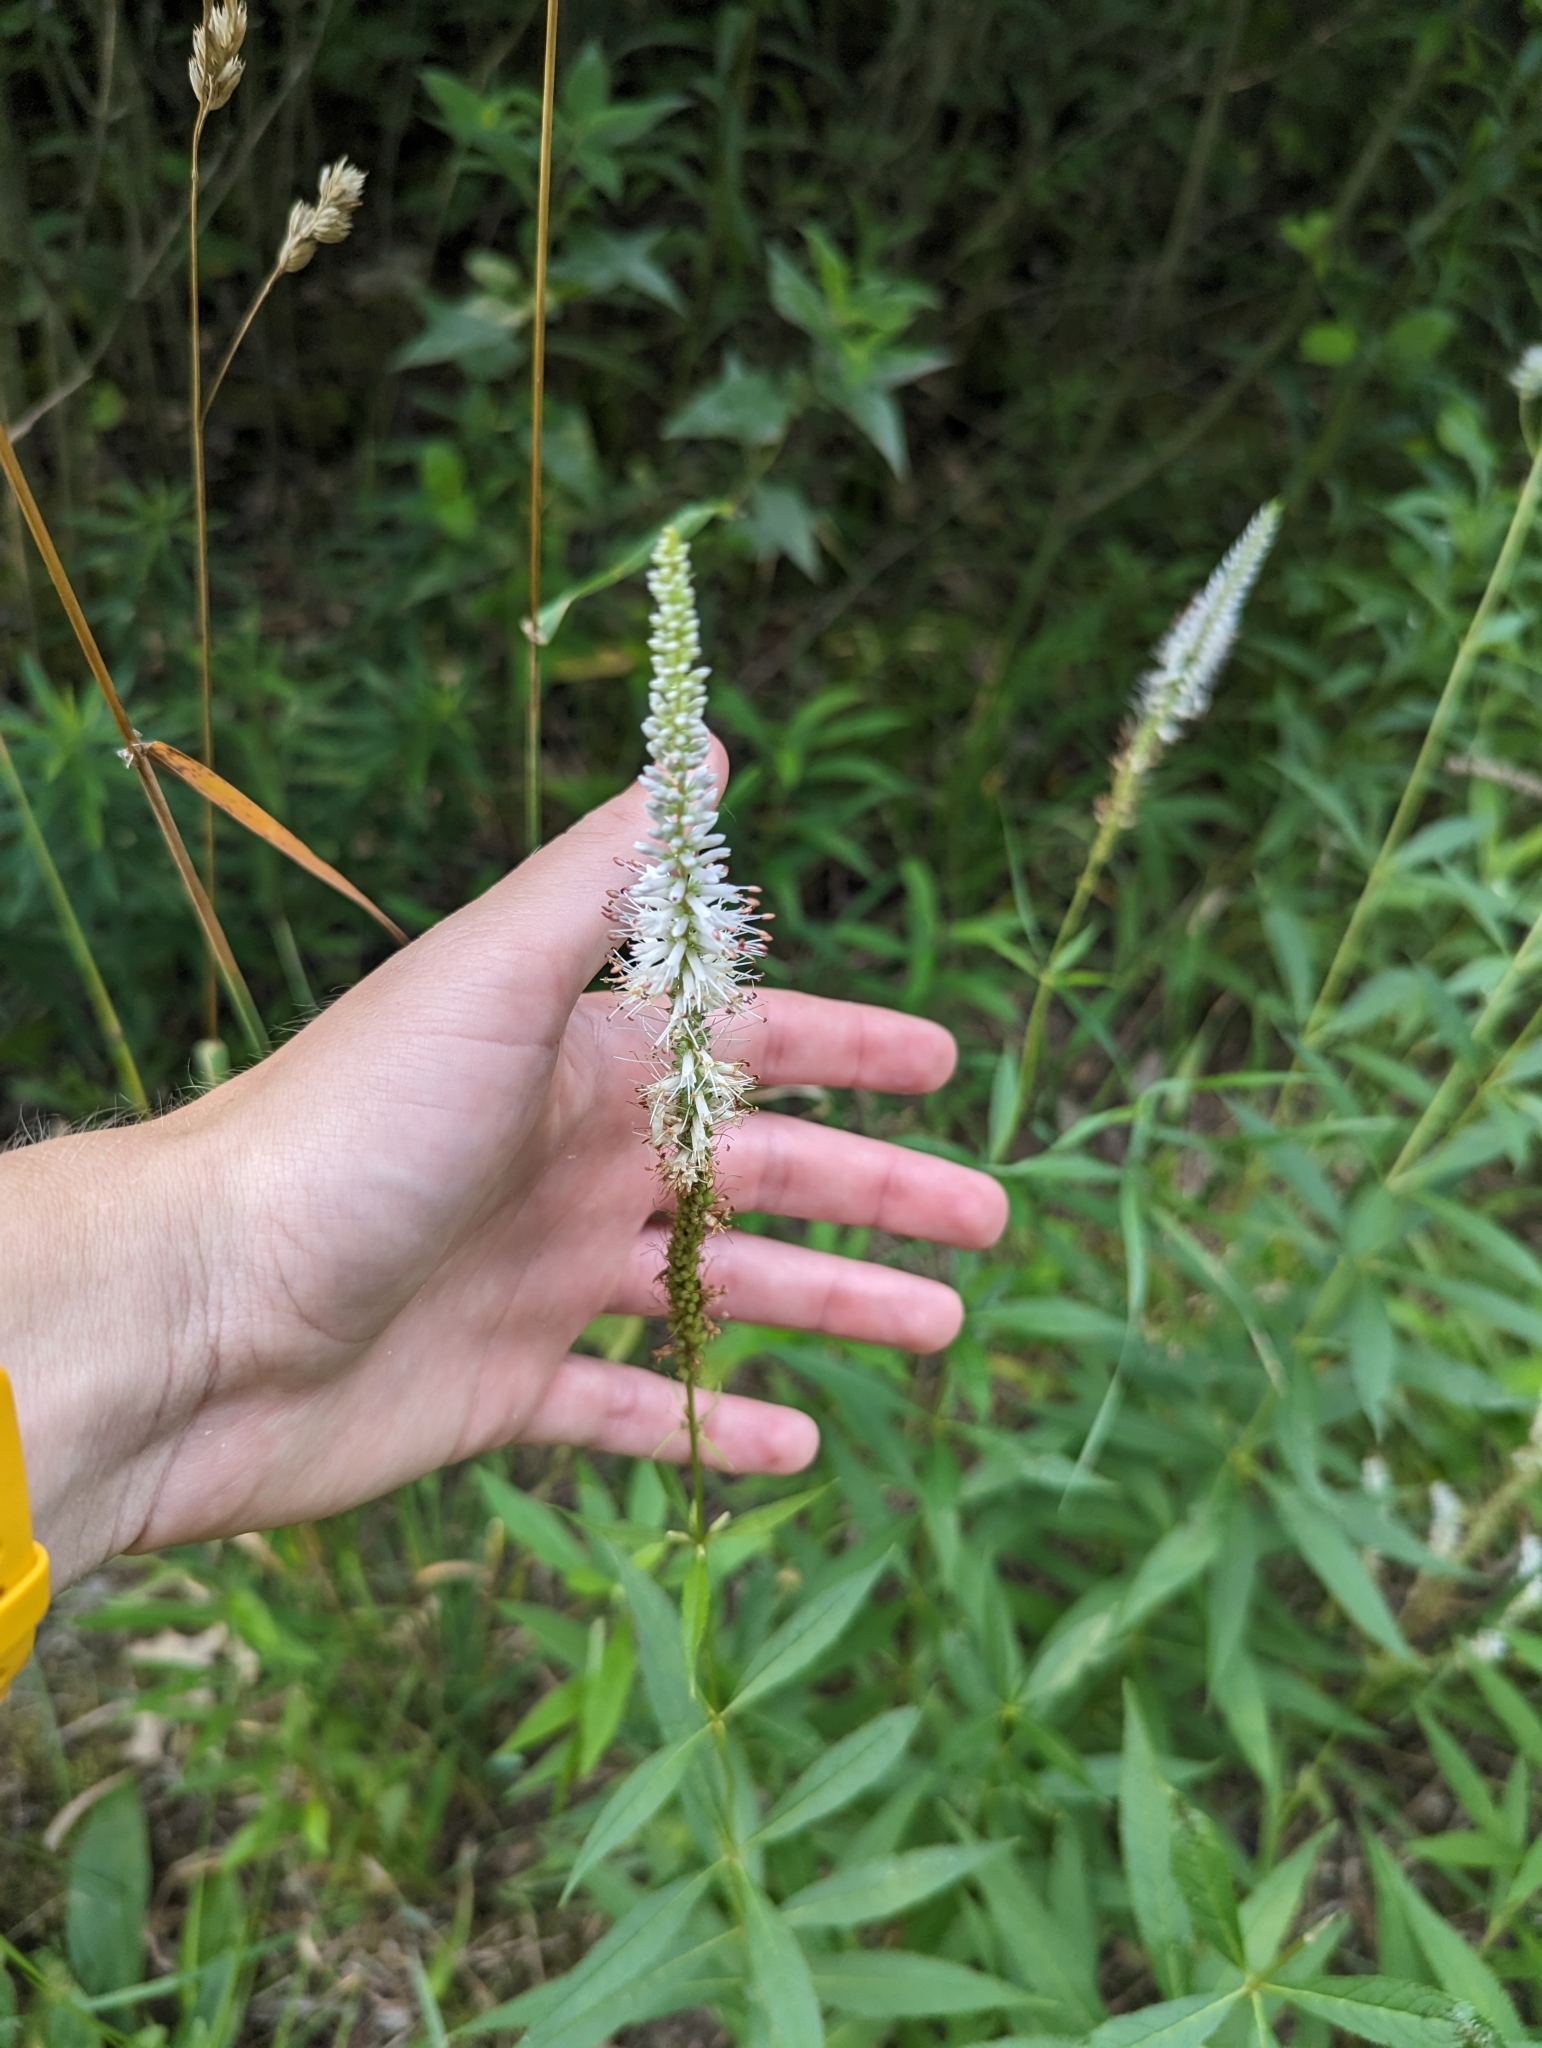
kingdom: Plantae
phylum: Tracheophyta
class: Magnoliopsida
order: Lamiales
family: Plantaginaceae
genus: Veronicastrum
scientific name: Veronicastrum virginicum
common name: Blackroot
